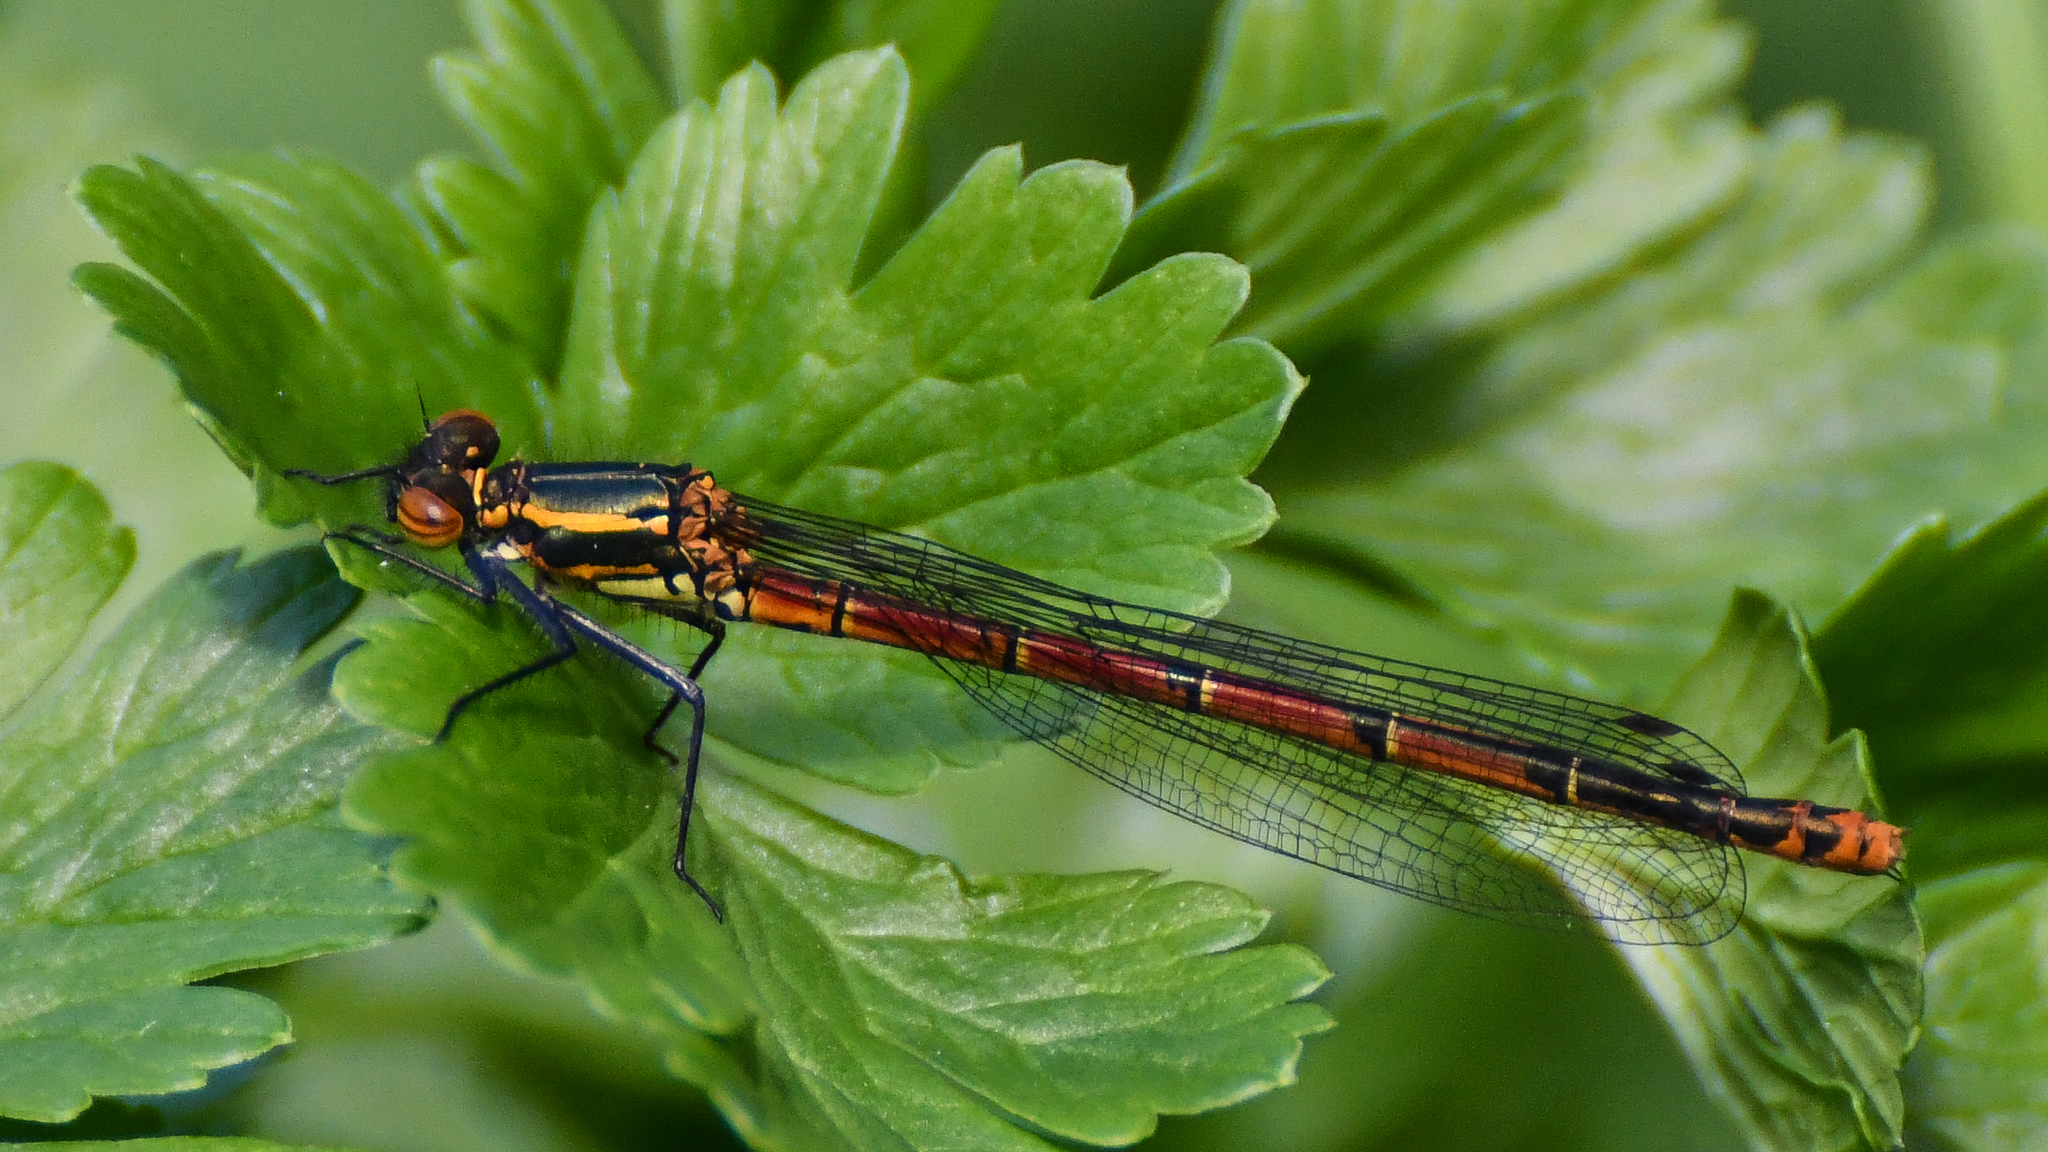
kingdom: Animalia
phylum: Arthropoda
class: Insecta
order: Odonata
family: Coenagrionidae
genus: Pyrrhosoma
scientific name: Pyrrhosoma nymphula
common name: Large red damsel
